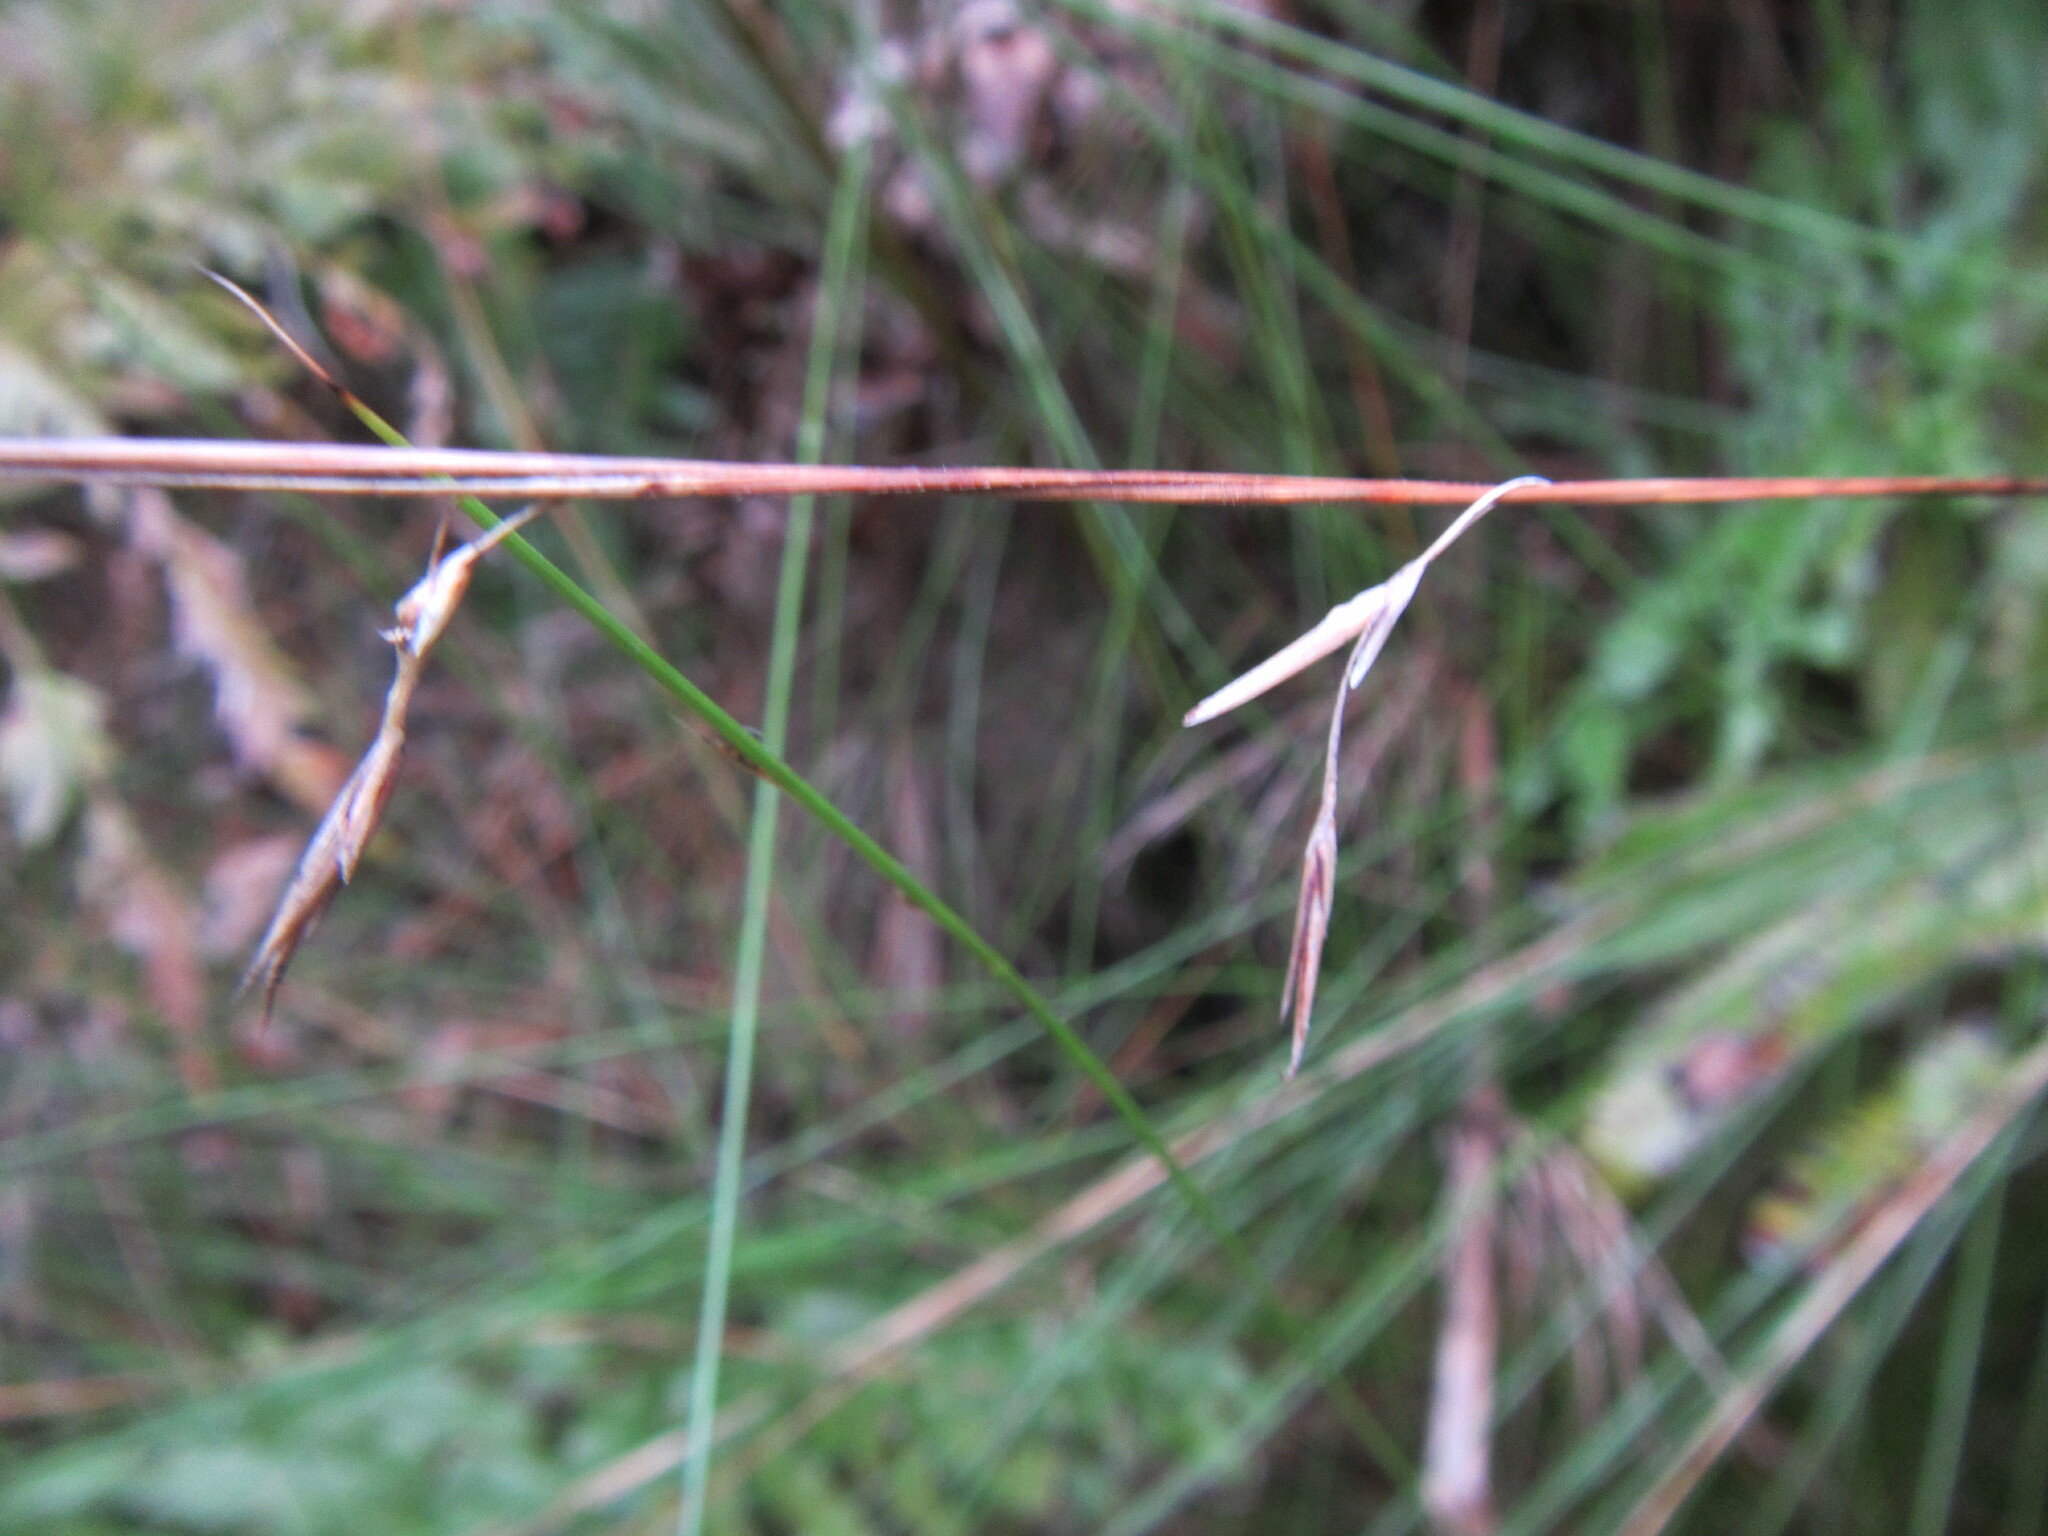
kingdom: Plantae
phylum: Tracheophyta
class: Liliopsida
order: Poales
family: Cyperaceae
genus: Schoenus
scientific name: Schoenus gracillimus
